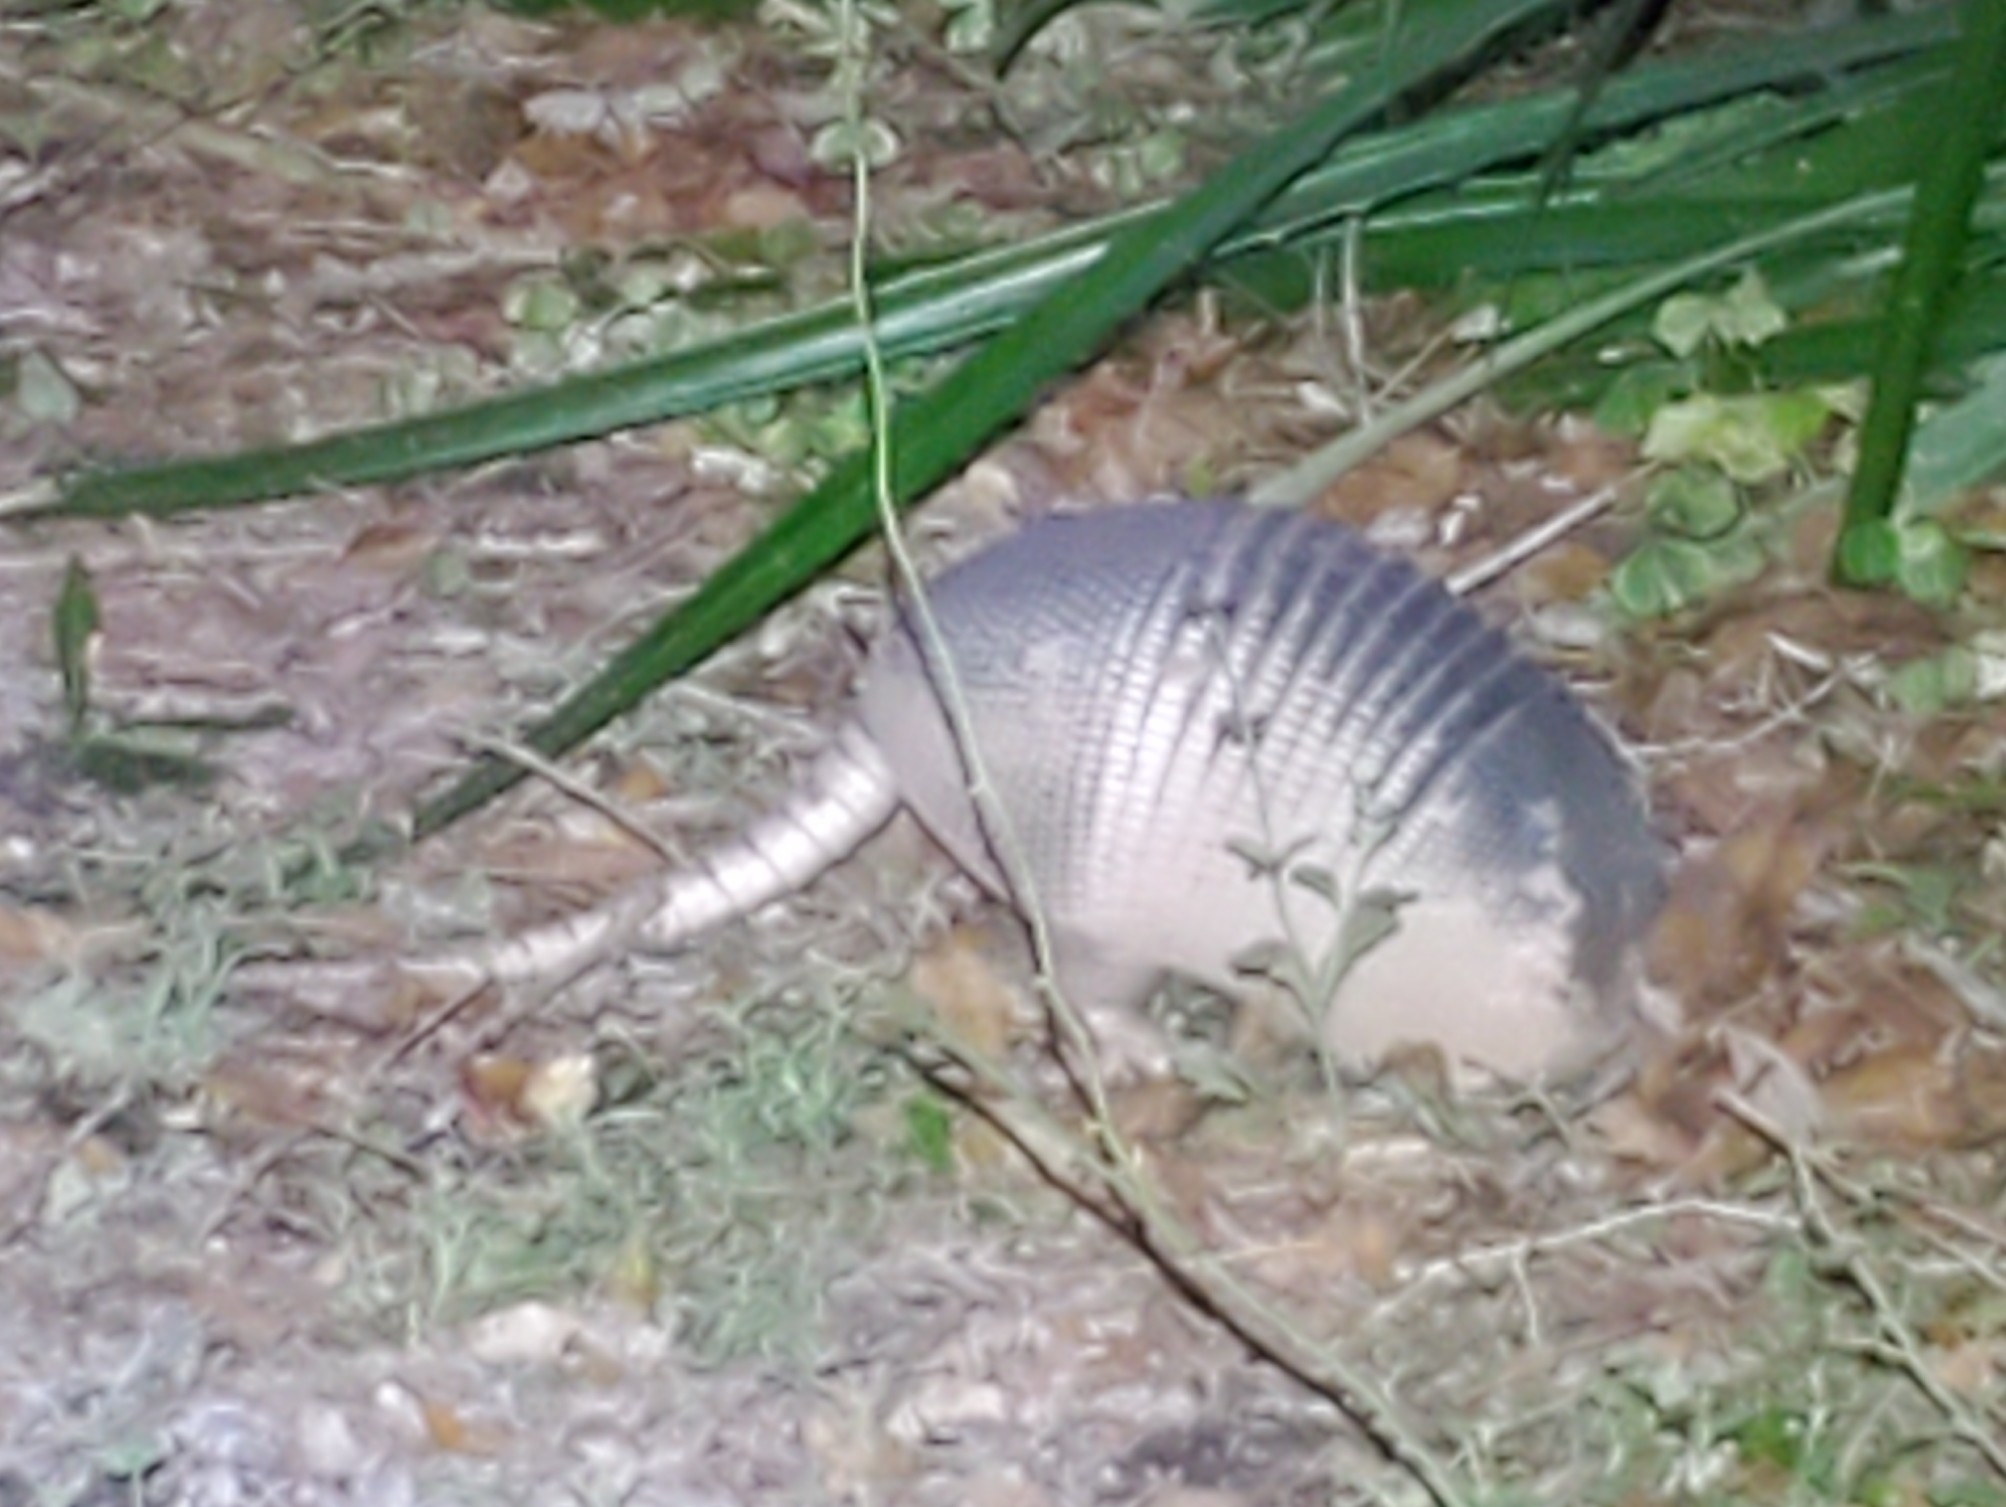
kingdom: Animalia
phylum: Chordata
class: Mammalia
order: Cingulata
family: Dasypodidae
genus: Dasypus
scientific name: Dasypus novemcinctus
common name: Nine-banded armadillo
